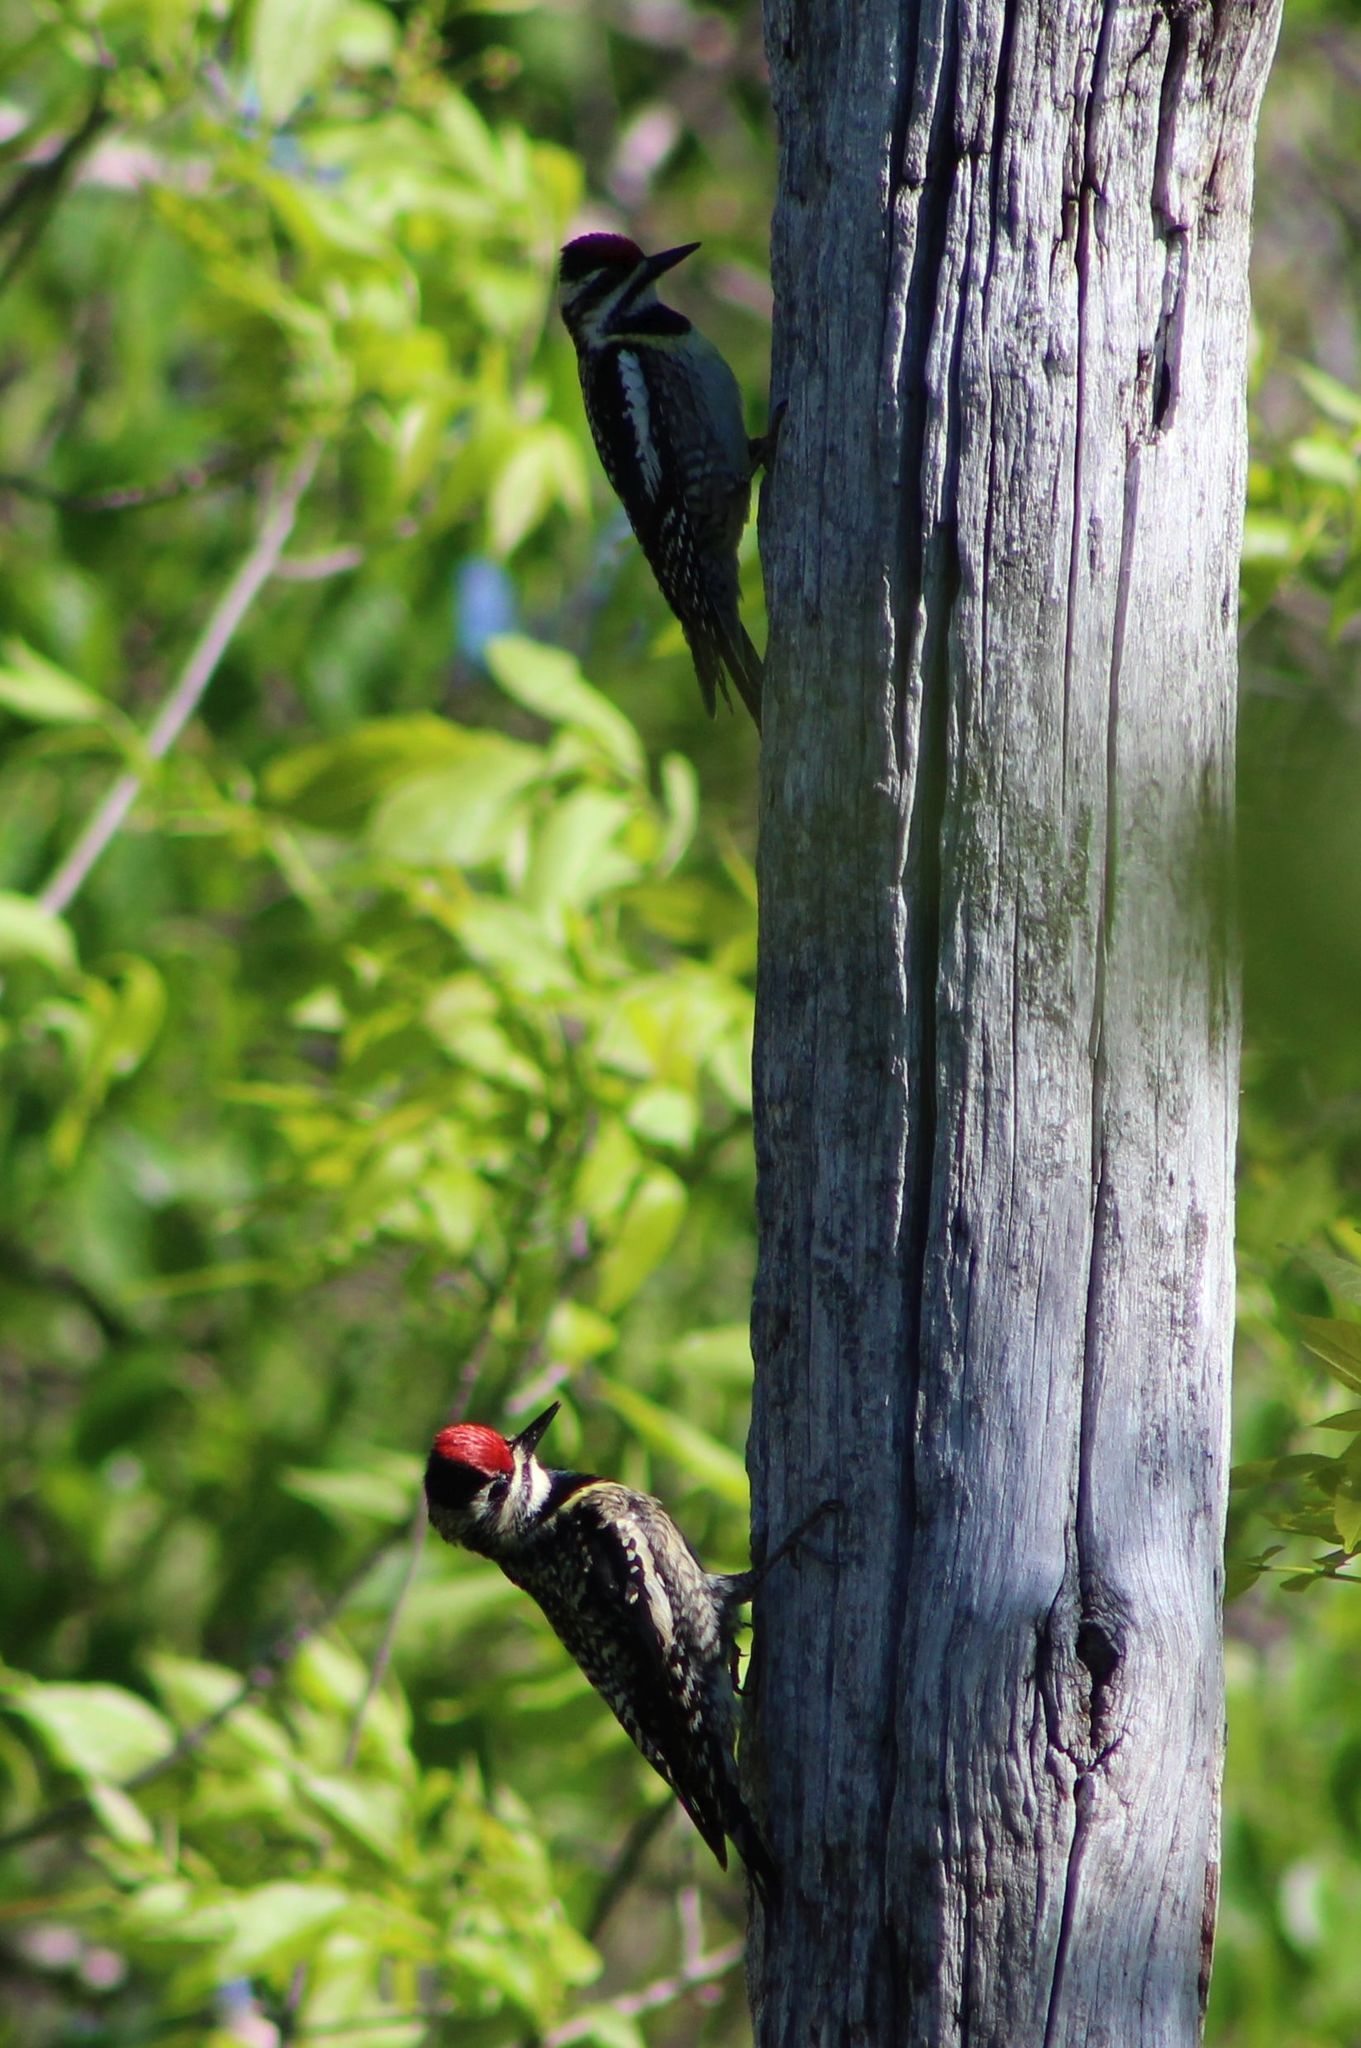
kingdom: Animalia
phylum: Chordata
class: Aves
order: Piciformes
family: Picidae
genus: Sphyrapicus
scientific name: Sphyrapicus varius
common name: Yellow-bellied sapsucker
